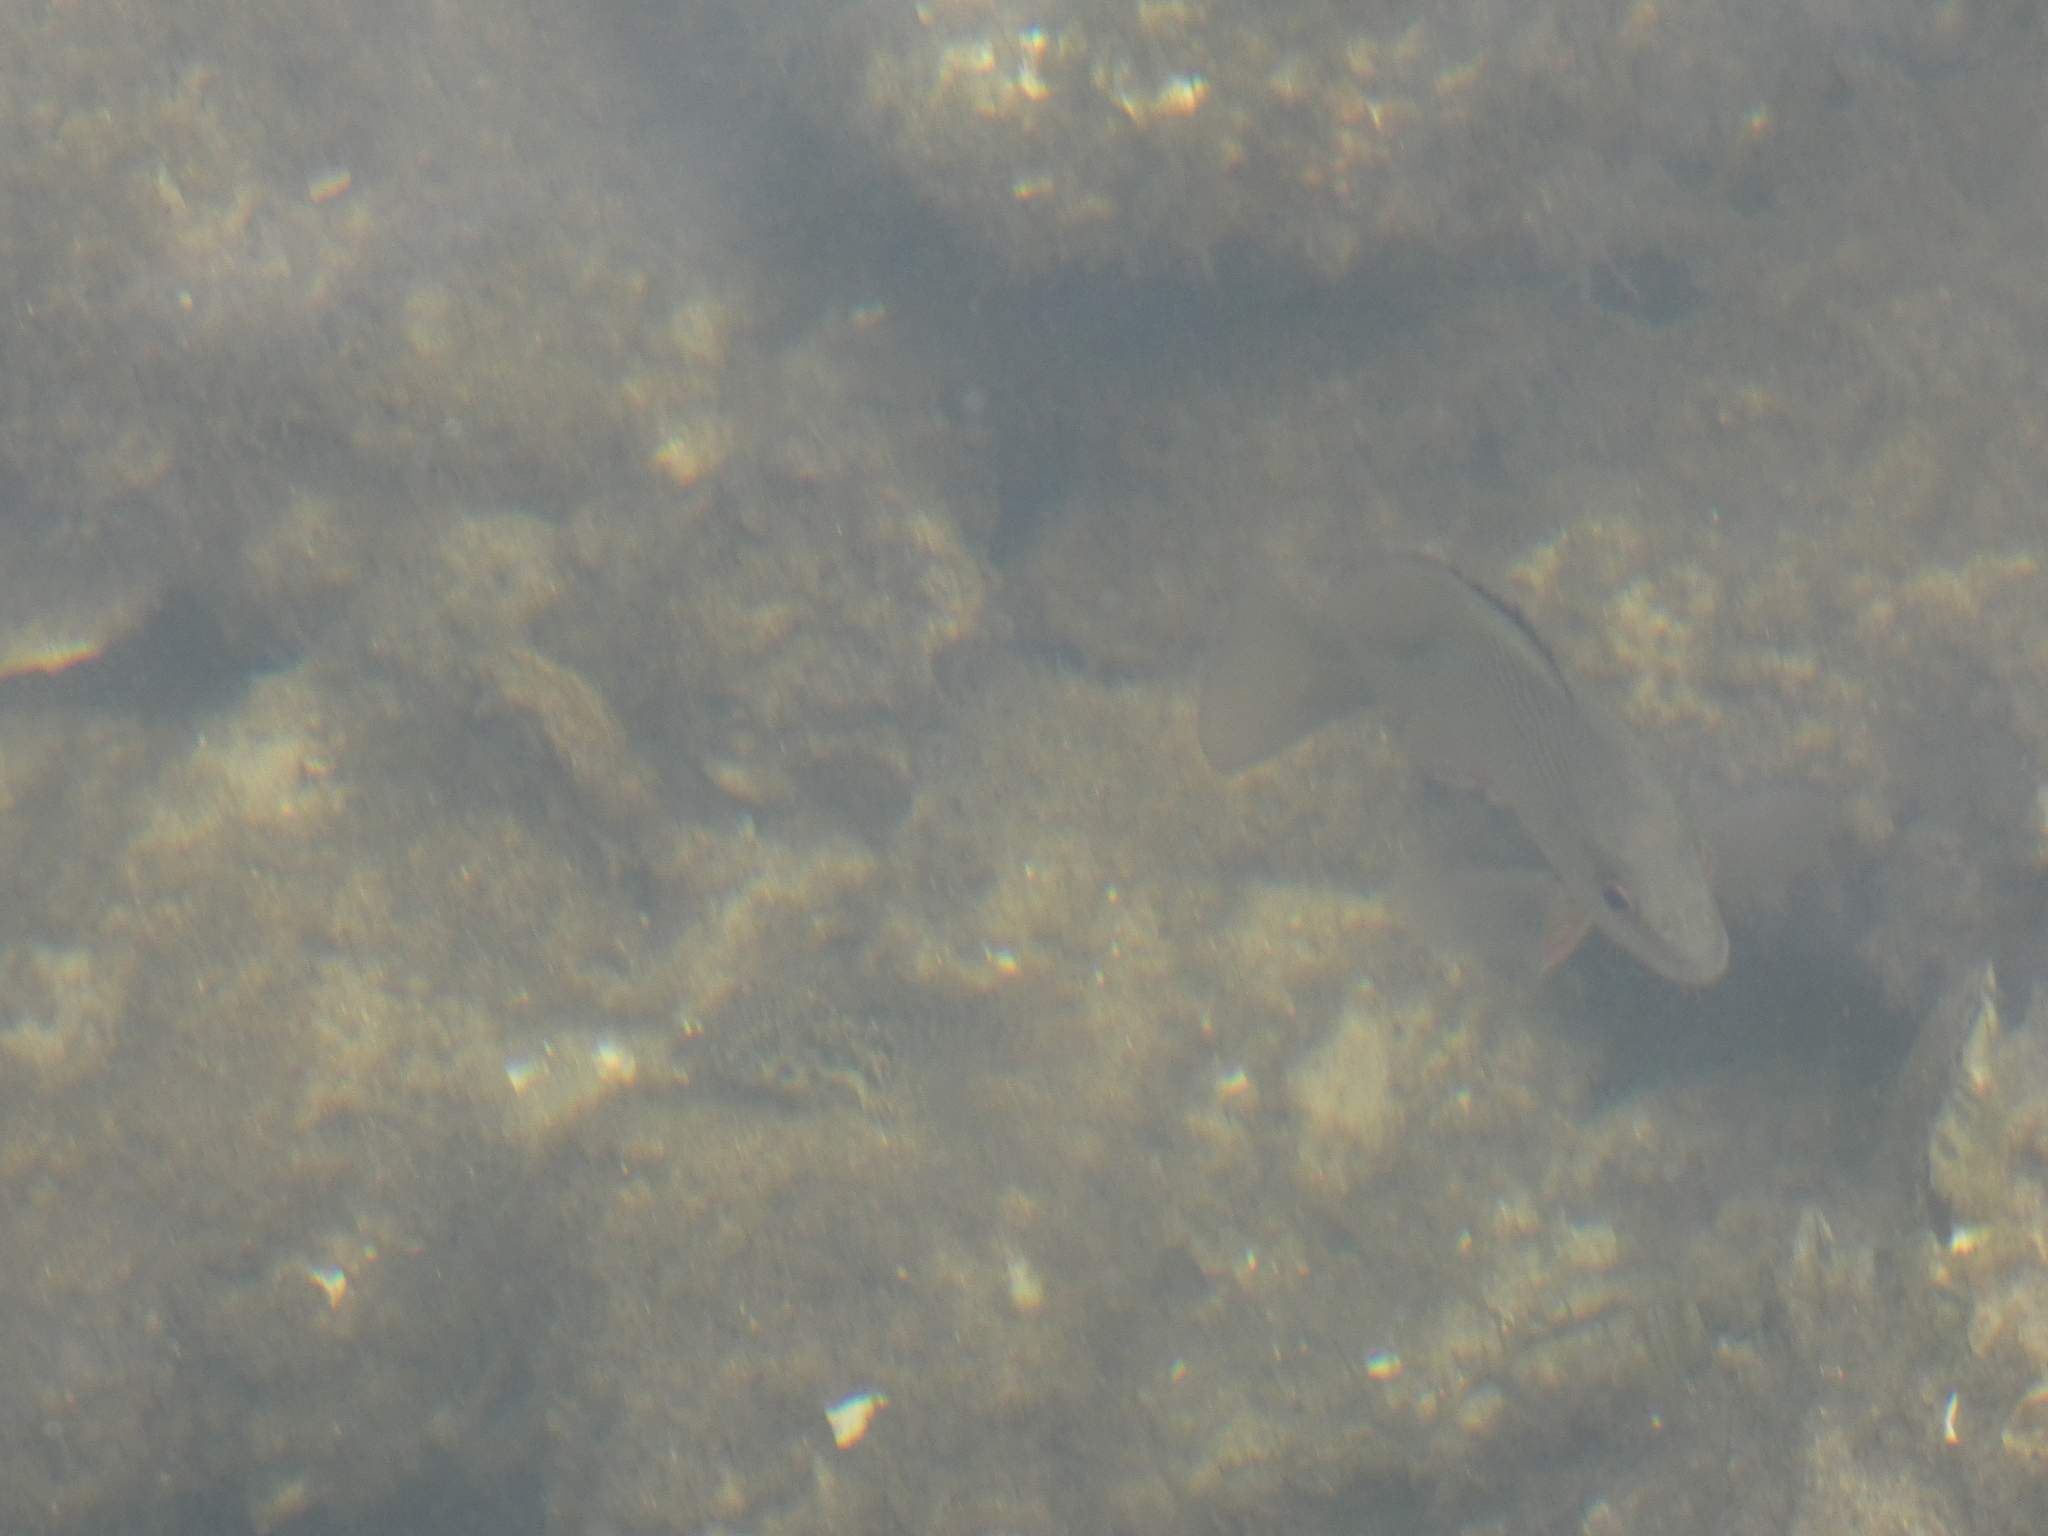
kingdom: Animalia
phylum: Chordata
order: Perciformes
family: Lutjanidae
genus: Lutjanus
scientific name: Lutjanus griseus
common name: Gray snapper
